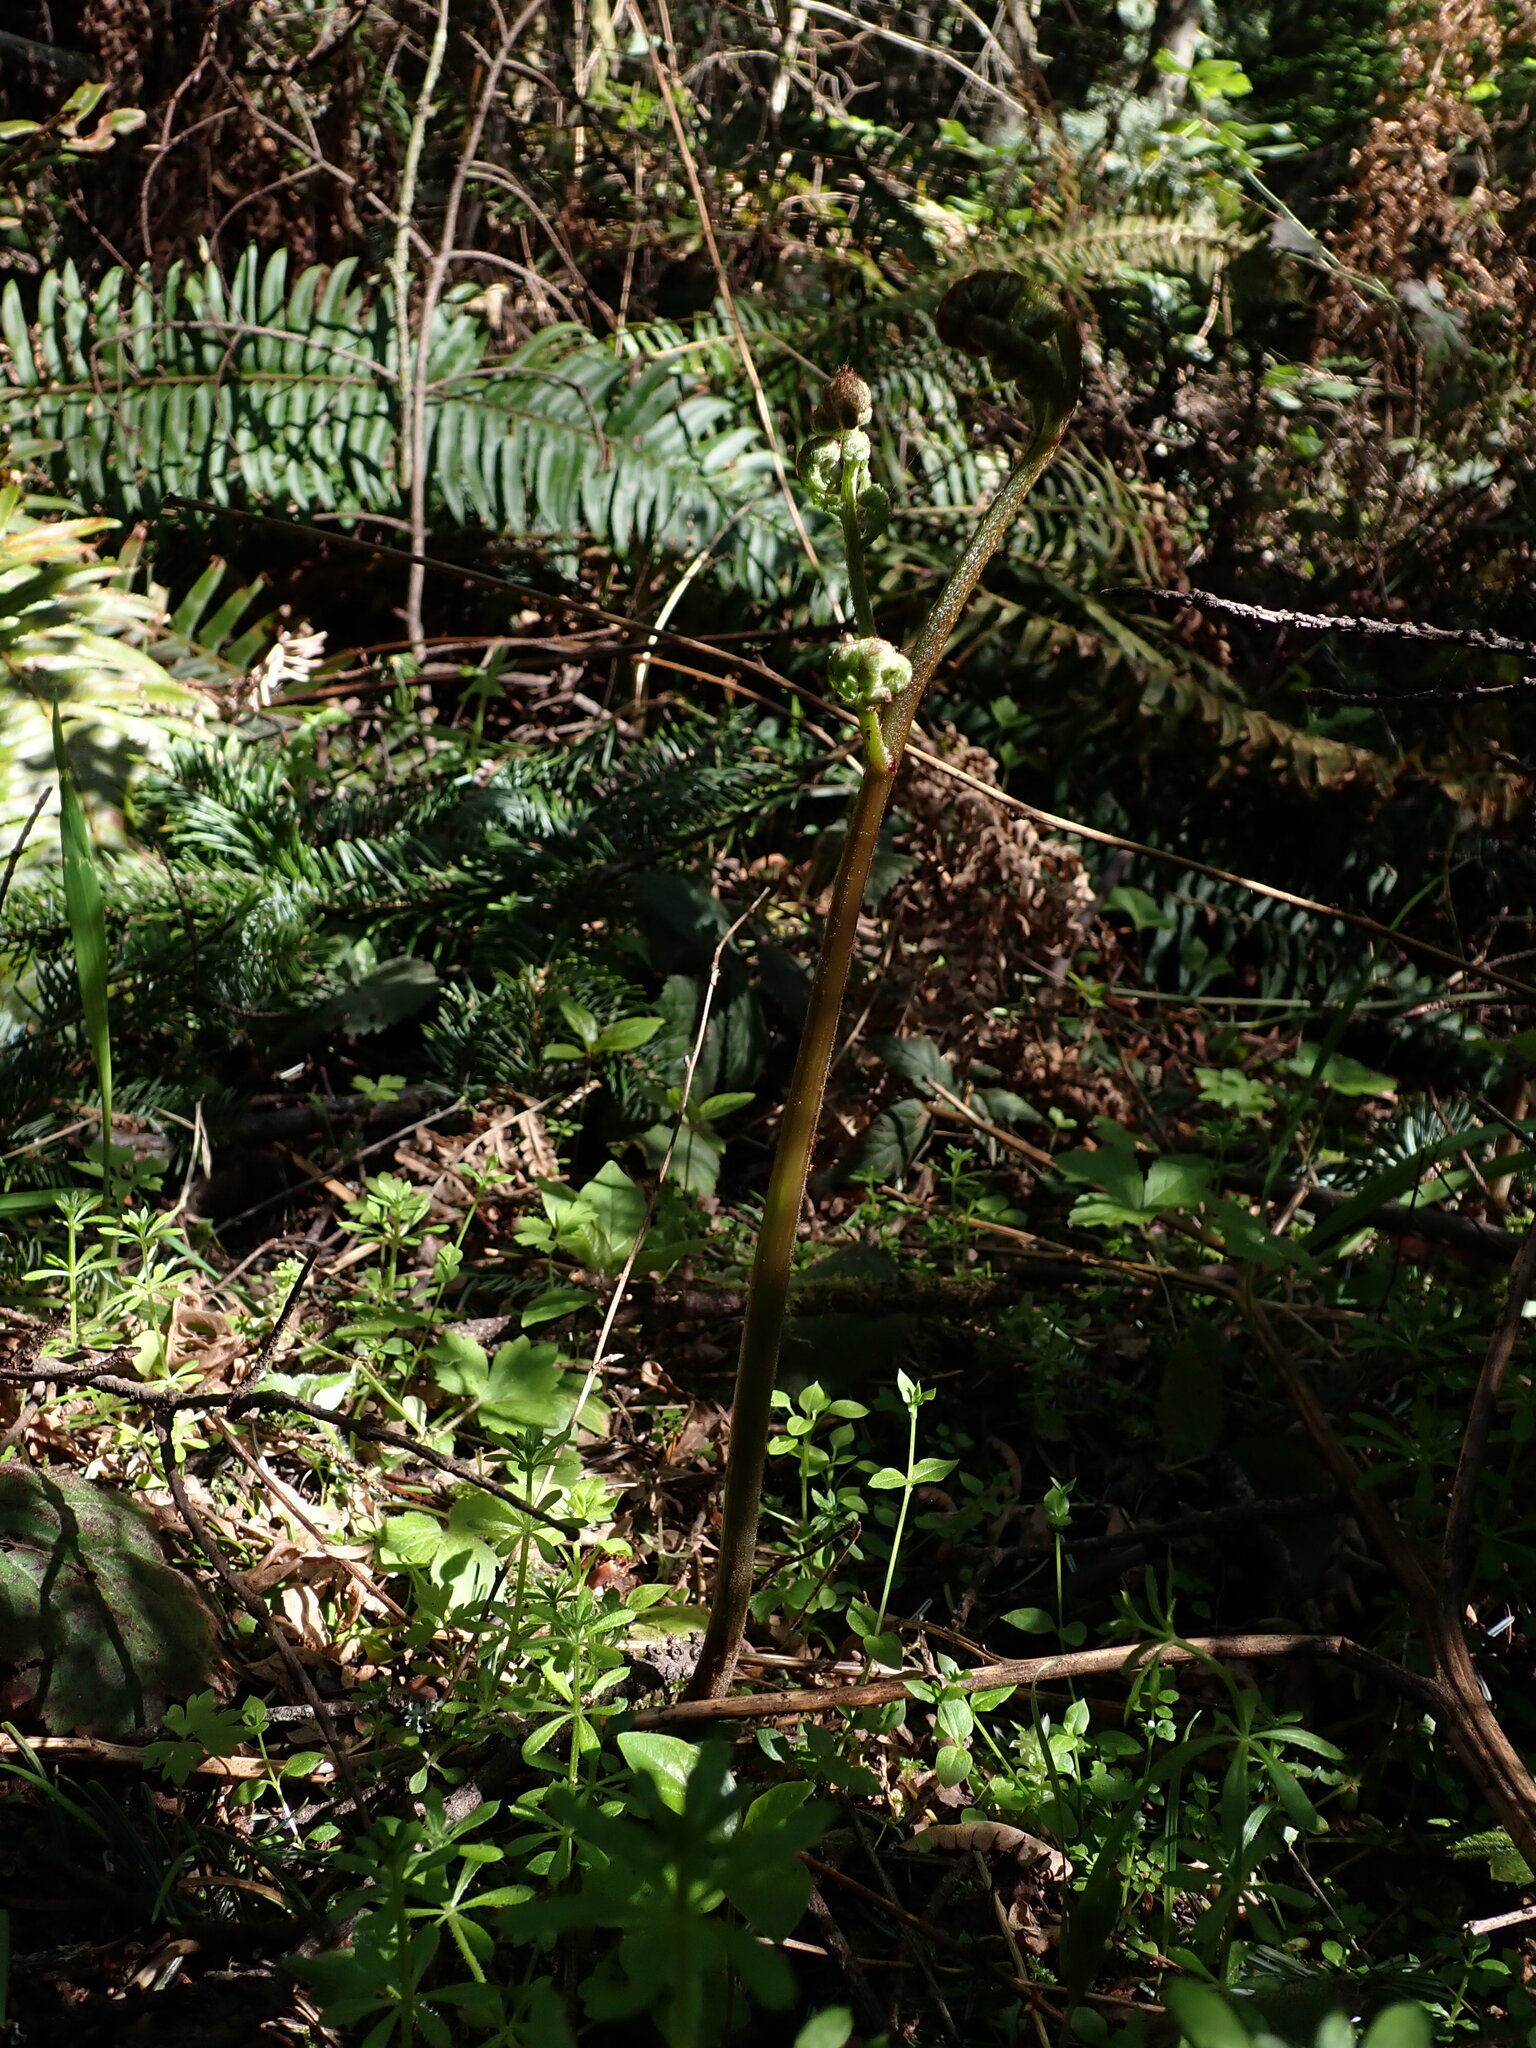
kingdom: Plantae
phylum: Tracheophyta
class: Polypodiopsida
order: Polypodiales
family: Dennstaedtiaceae
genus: Pteridium
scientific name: Pteridium aquilinum
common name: Bracken
